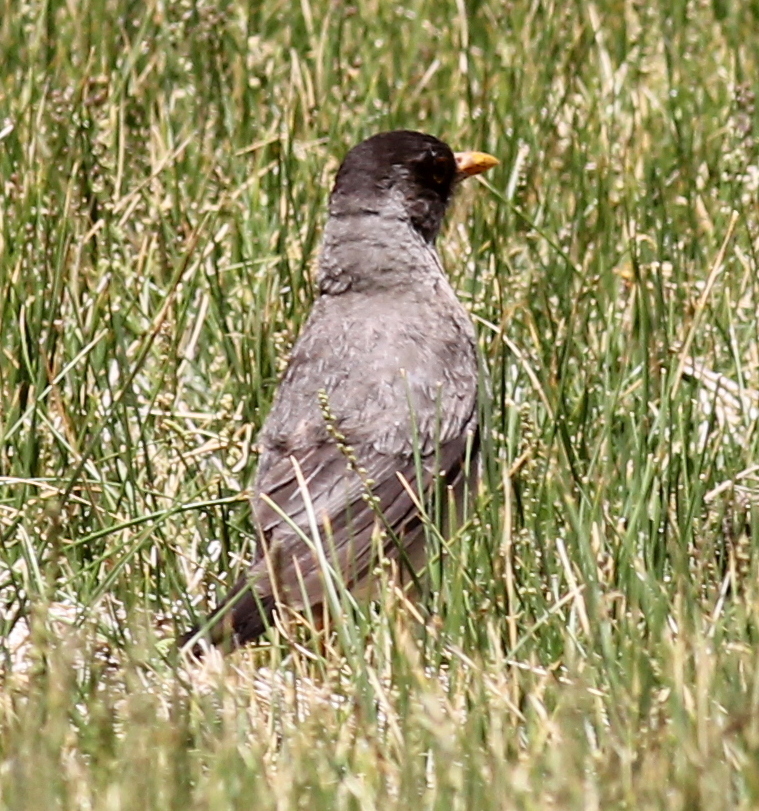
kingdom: Animalia
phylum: Chordata
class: Aves
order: Passeriformes
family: Turdidae
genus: Turdus
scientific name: Turdus falcklandii
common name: Austral thrush
